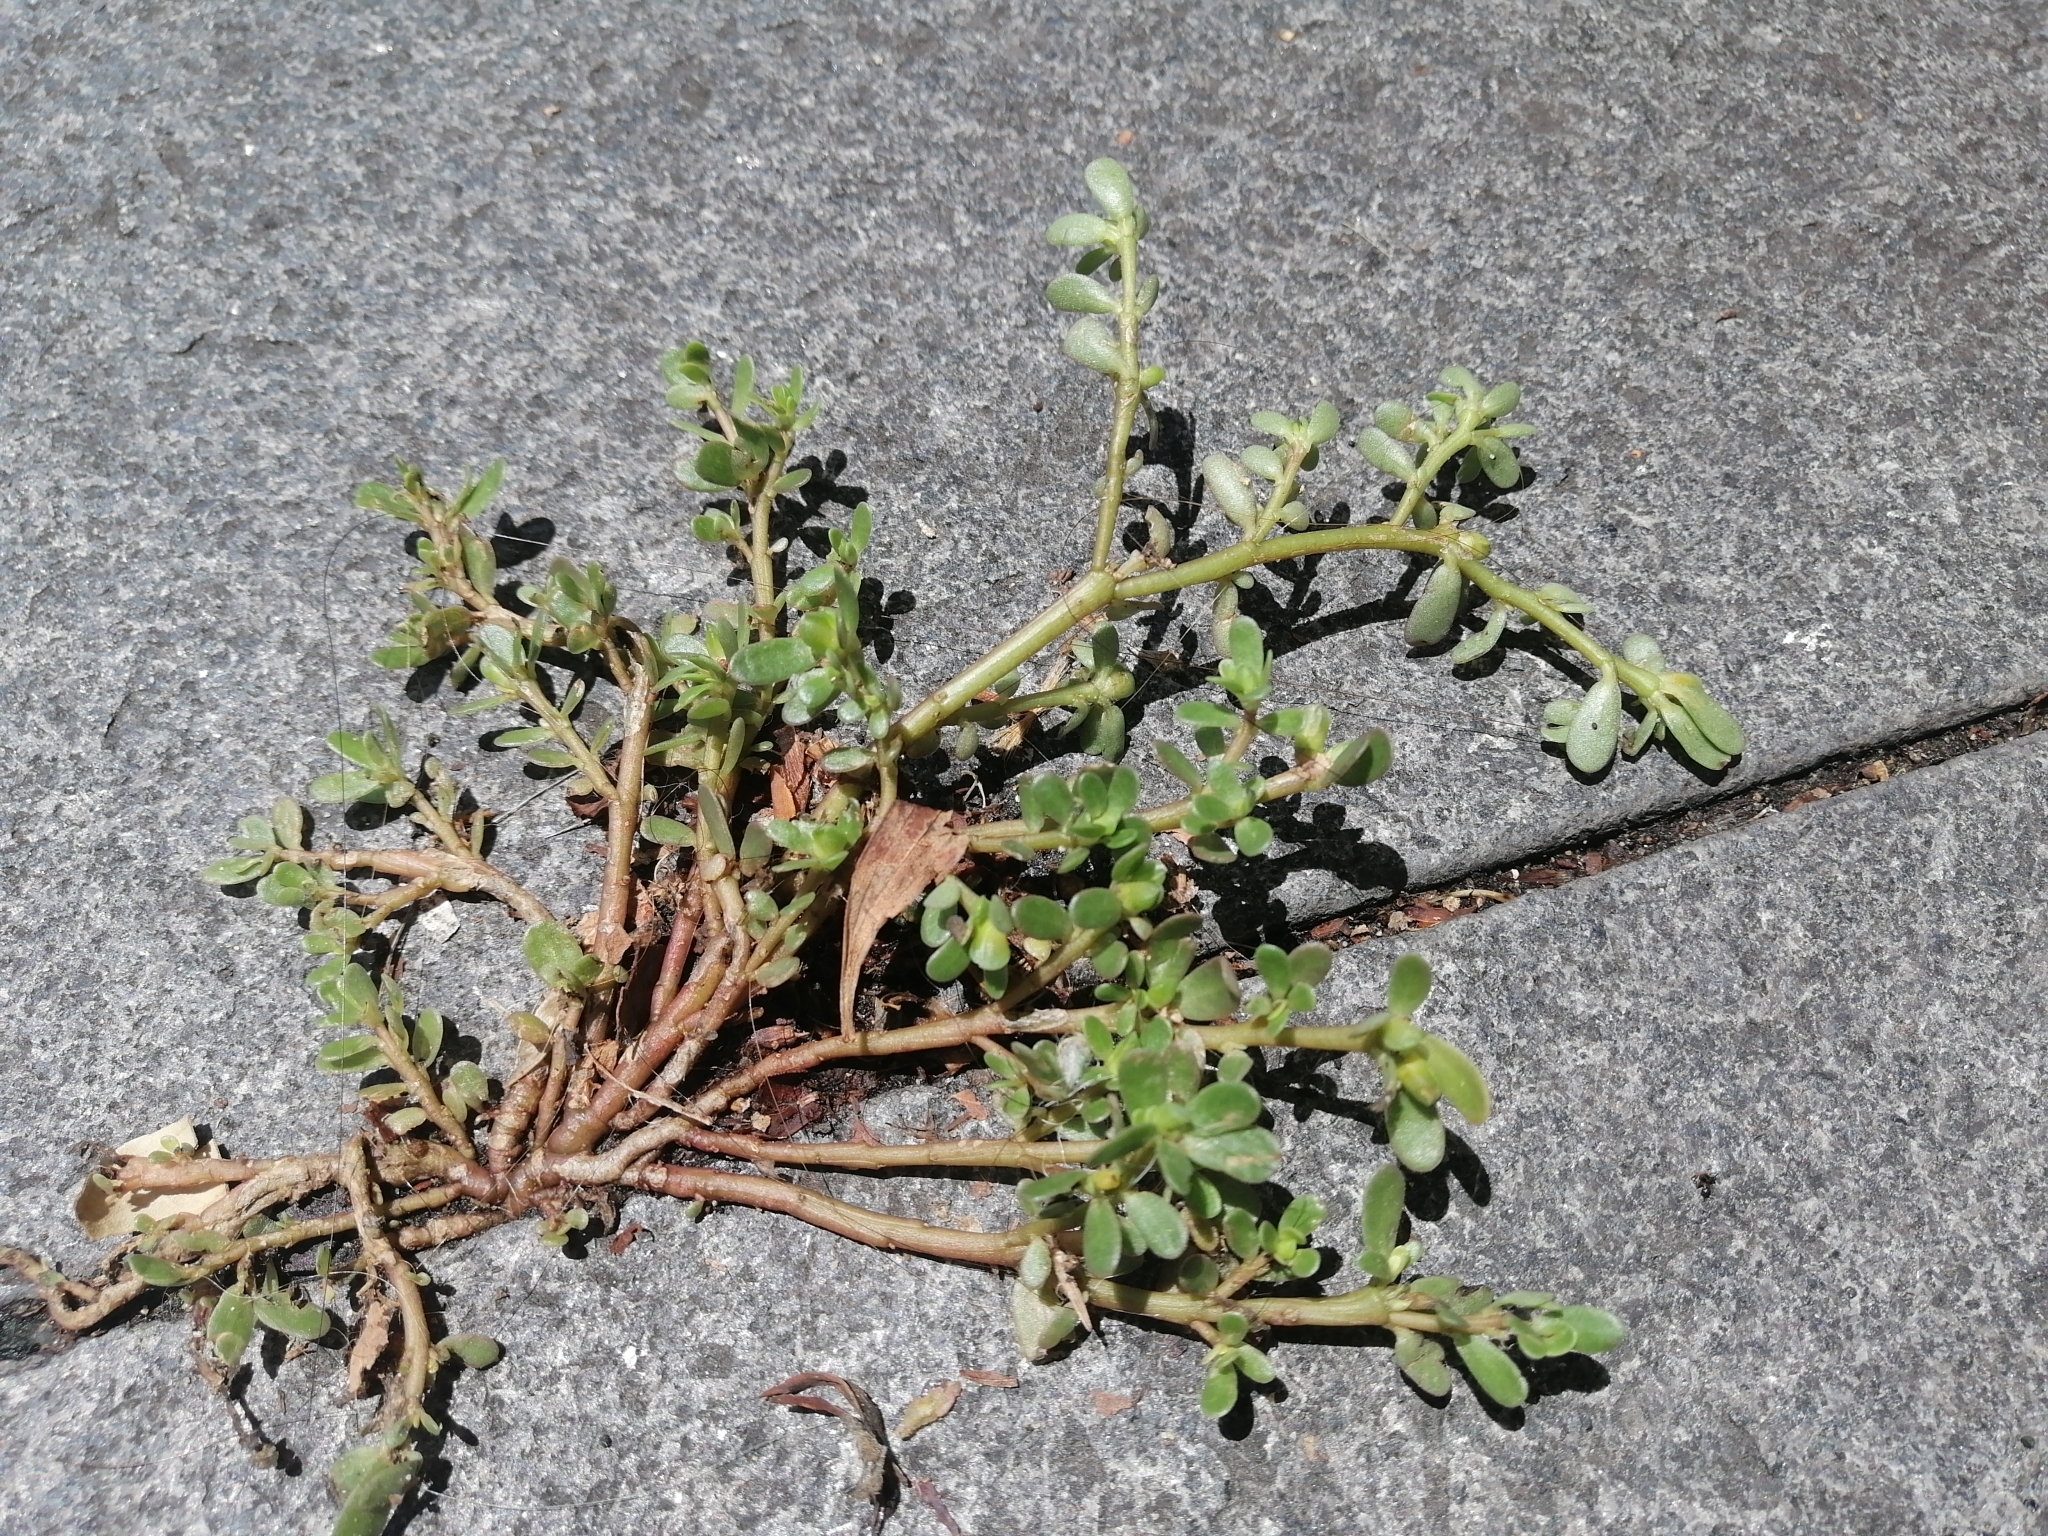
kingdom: Plantae
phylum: Tracheophyta
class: Magnoliopsida
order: Caryophyllales
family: Portulacaceae
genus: Portulaca
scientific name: Portulaca oleracea
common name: Common purslane
